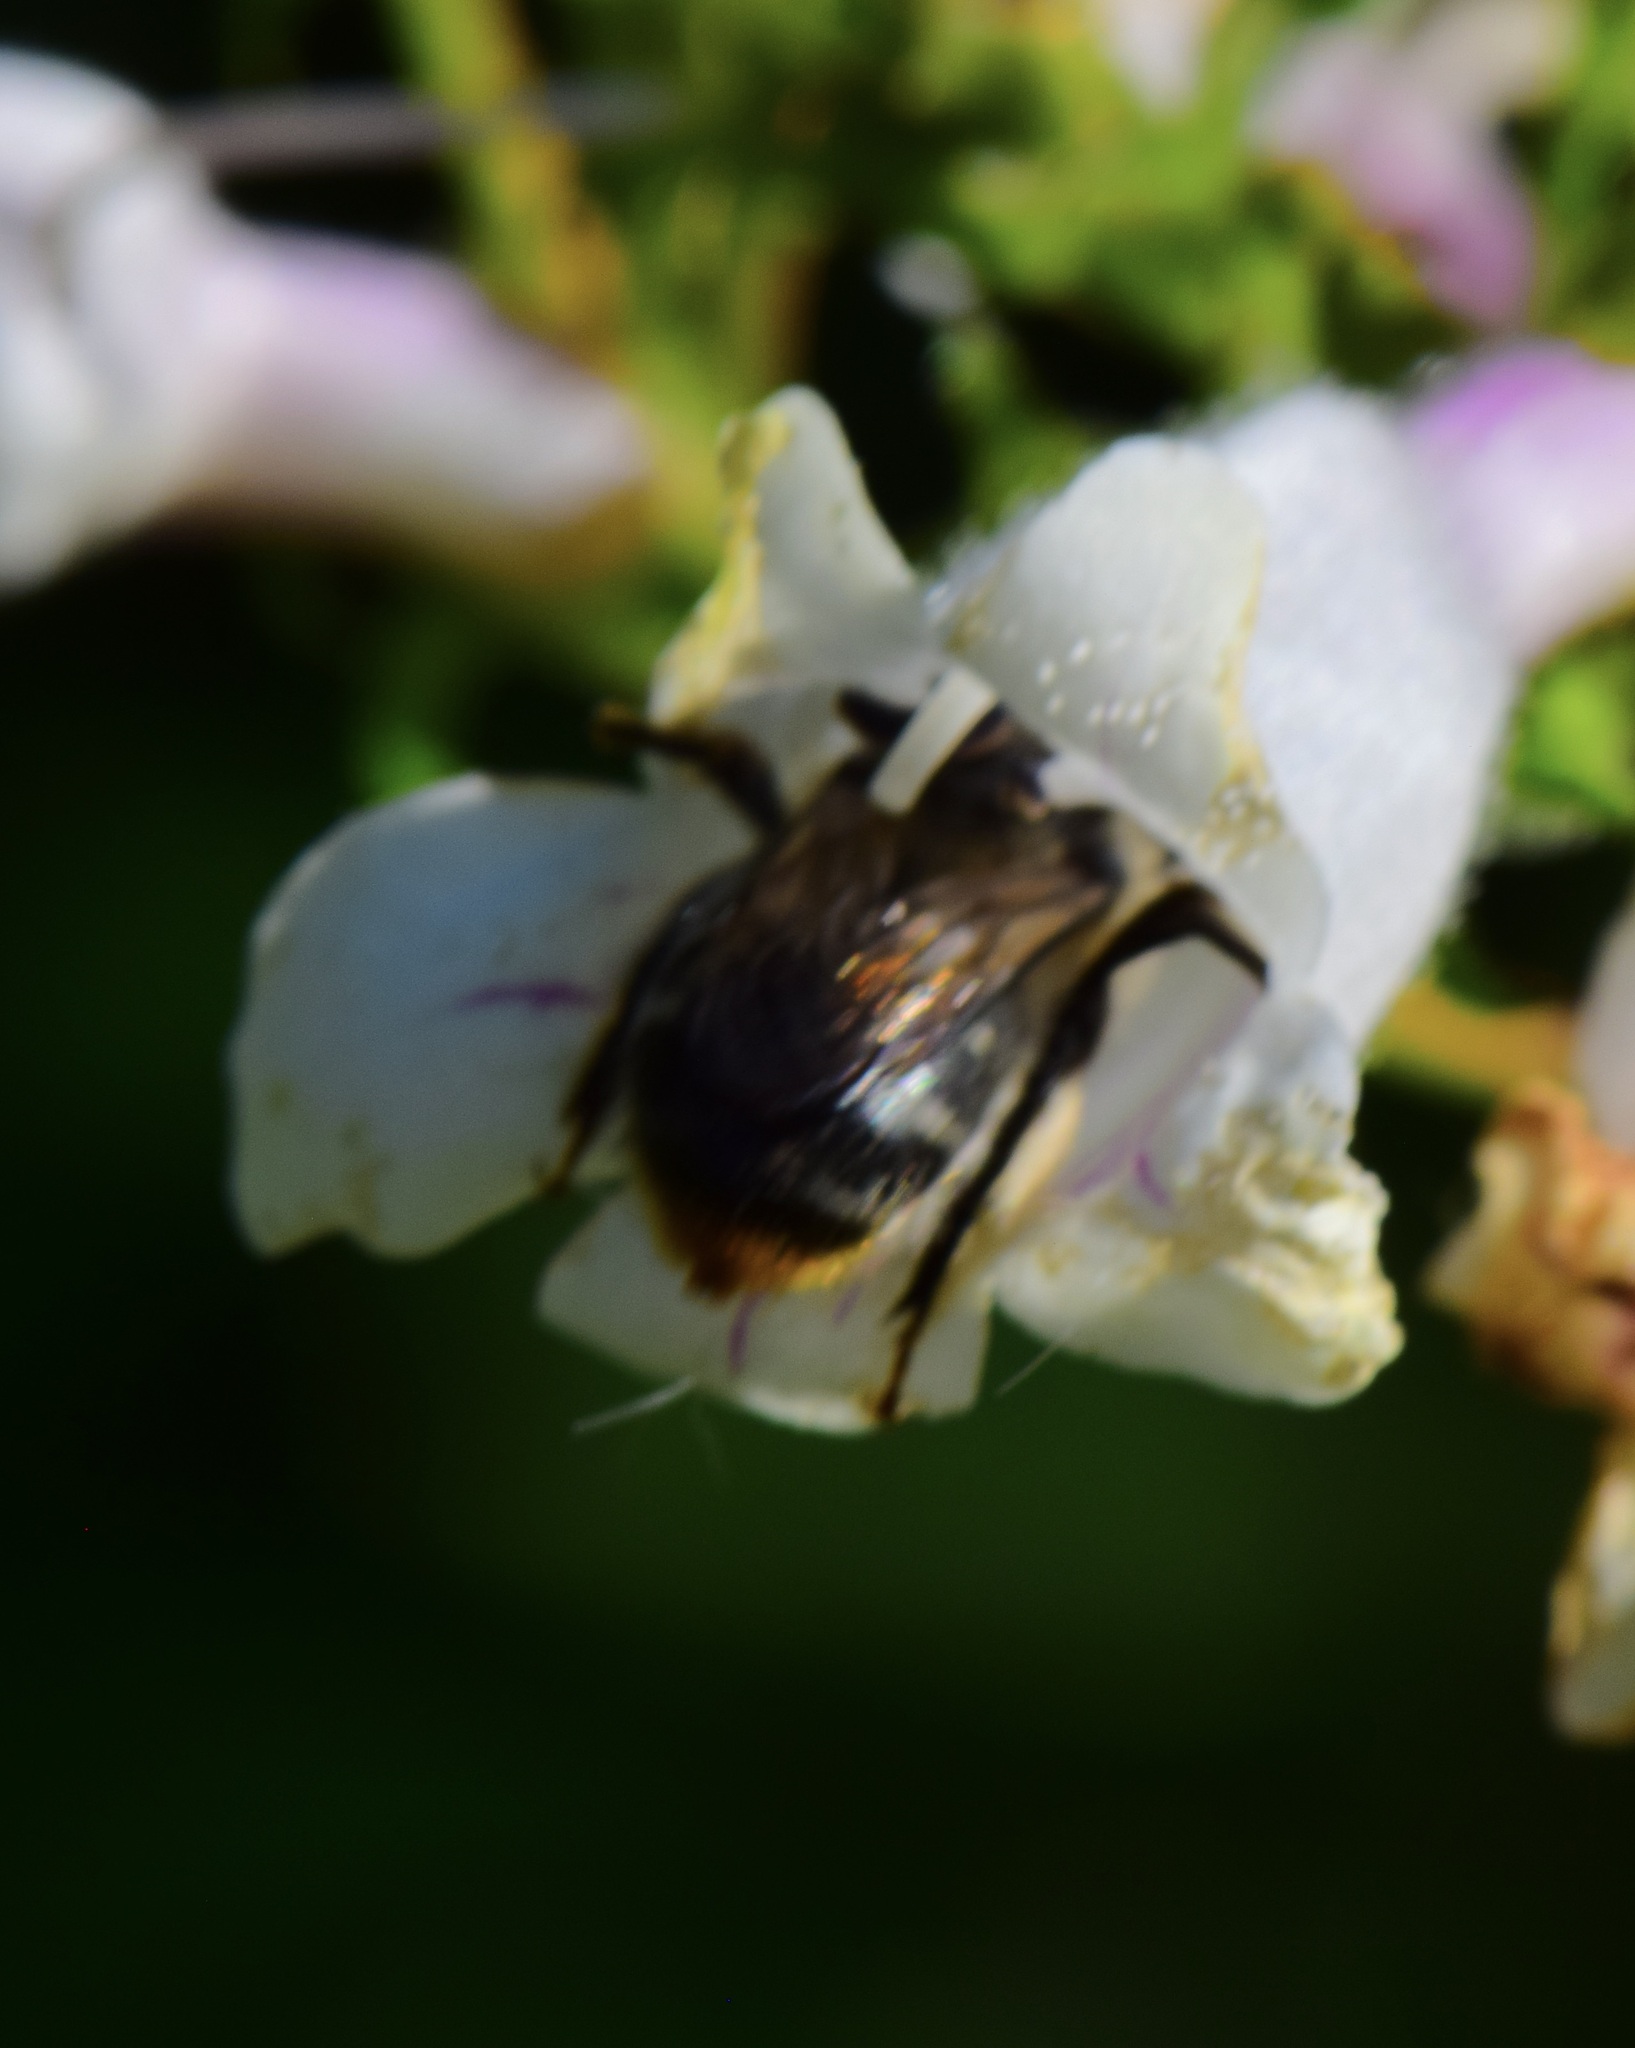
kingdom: Animalia
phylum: Arthropoda
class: Insecta
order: Hymenoptera
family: Apidae
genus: Anthophora
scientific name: Anthophora terminalis
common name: Orange-tipped wood-digger bee
